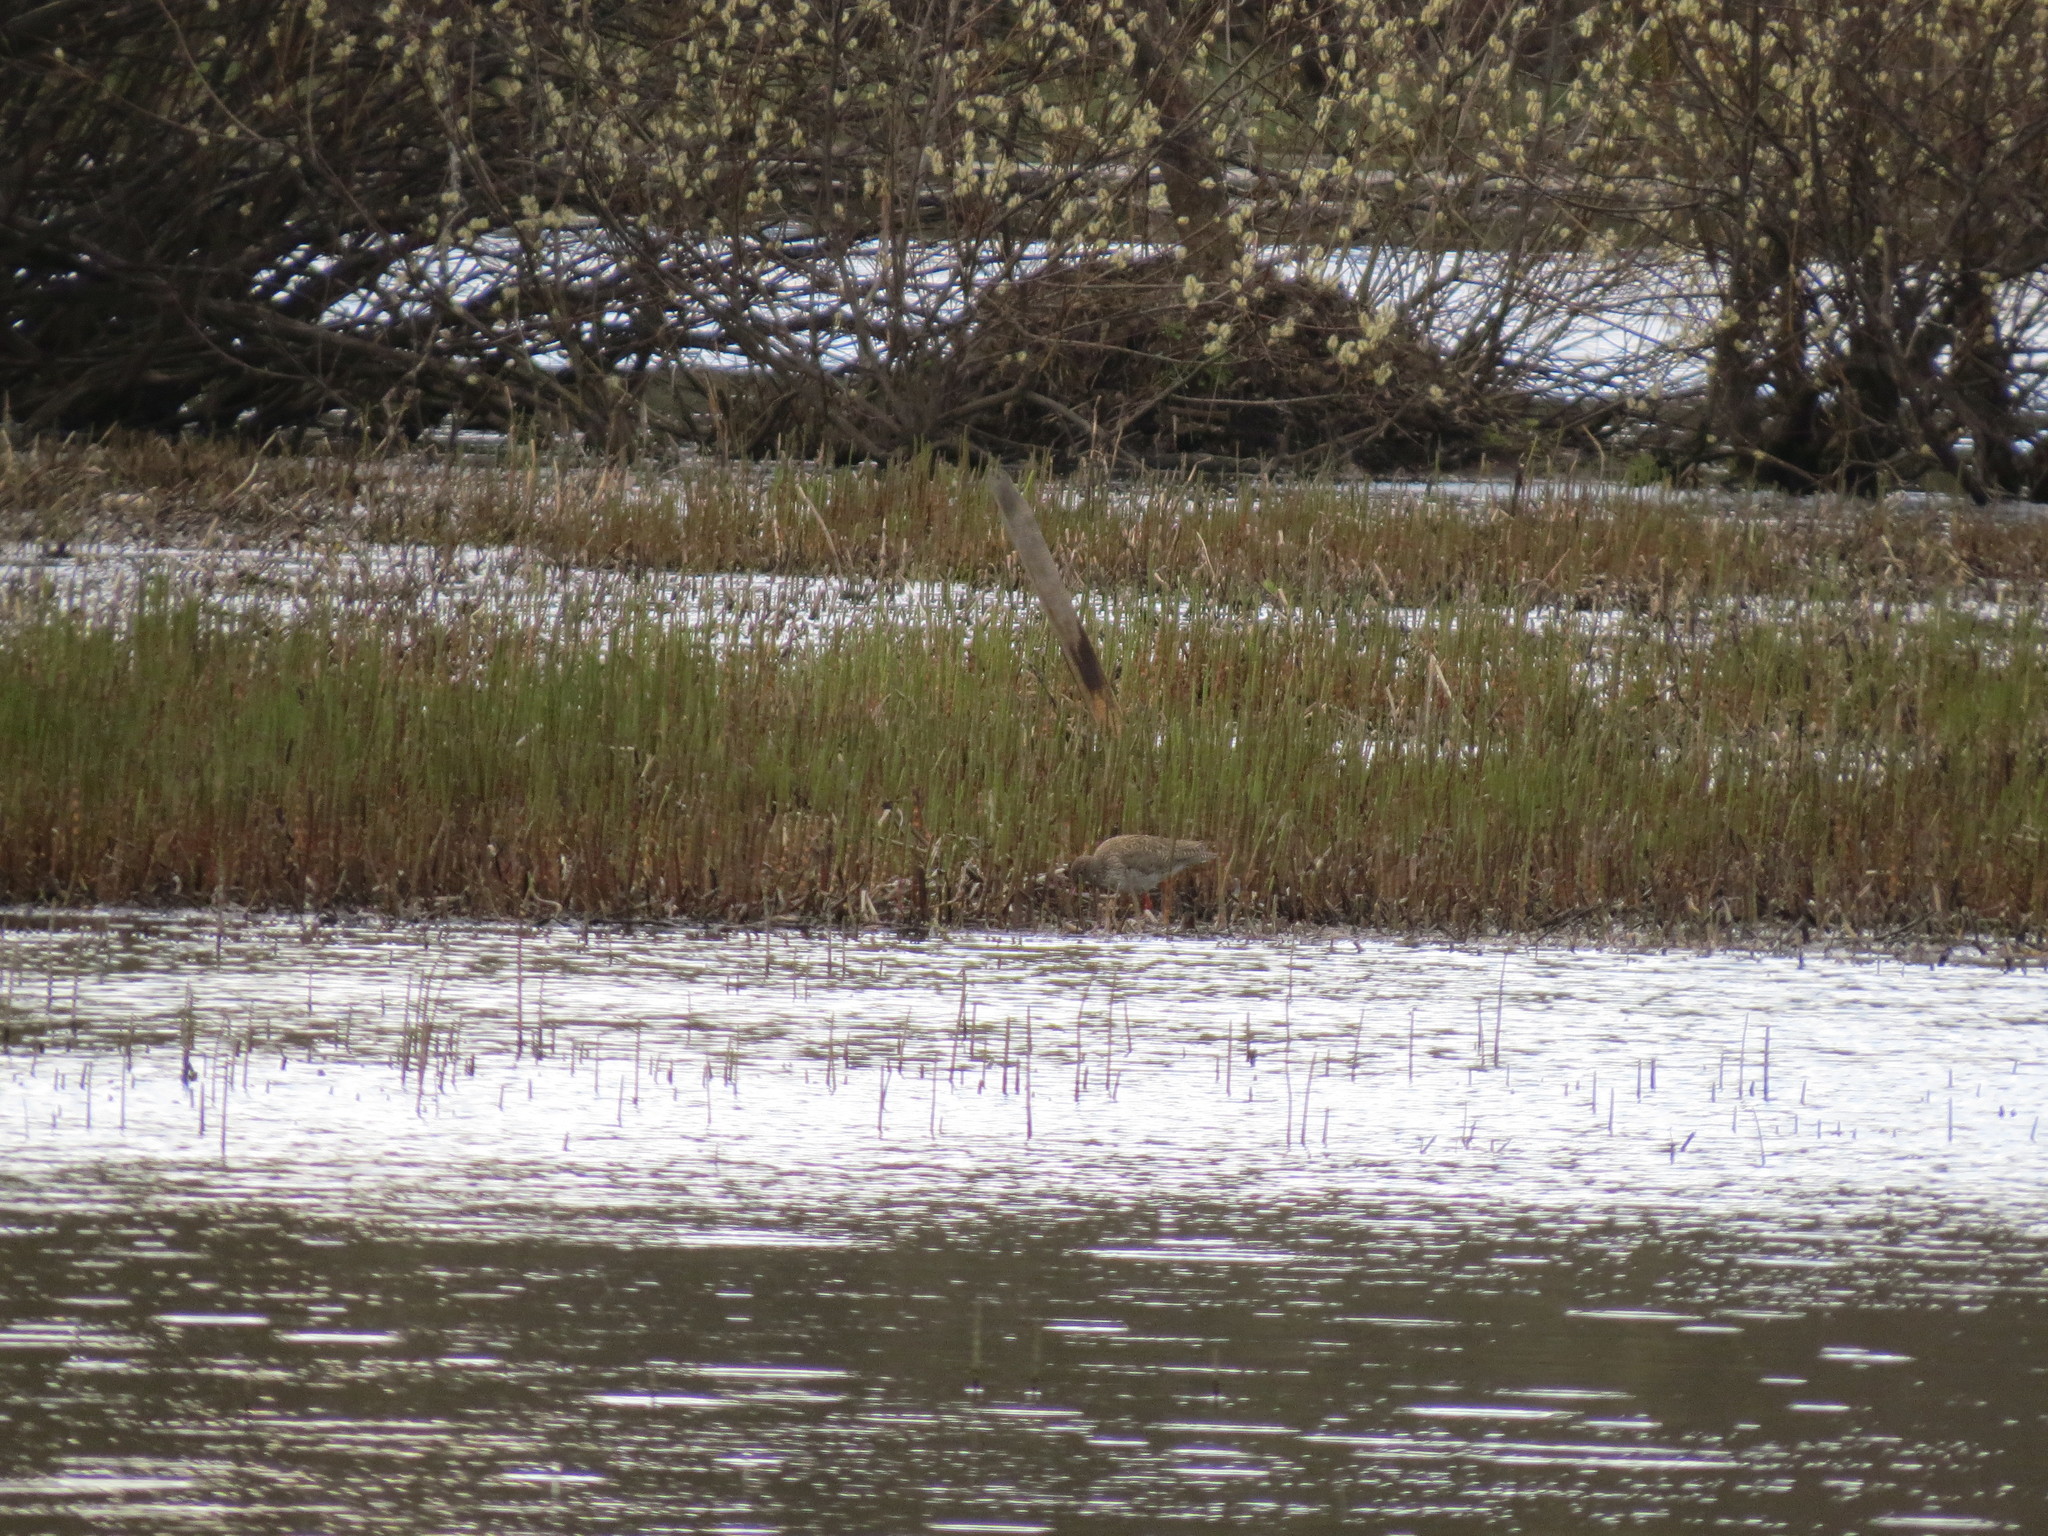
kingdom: Animalia
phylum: Chordata
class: Aves
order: Charadriiformes
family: Scolopacidae
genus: Tringa
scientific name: Tringa totanus
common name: Common redshank
